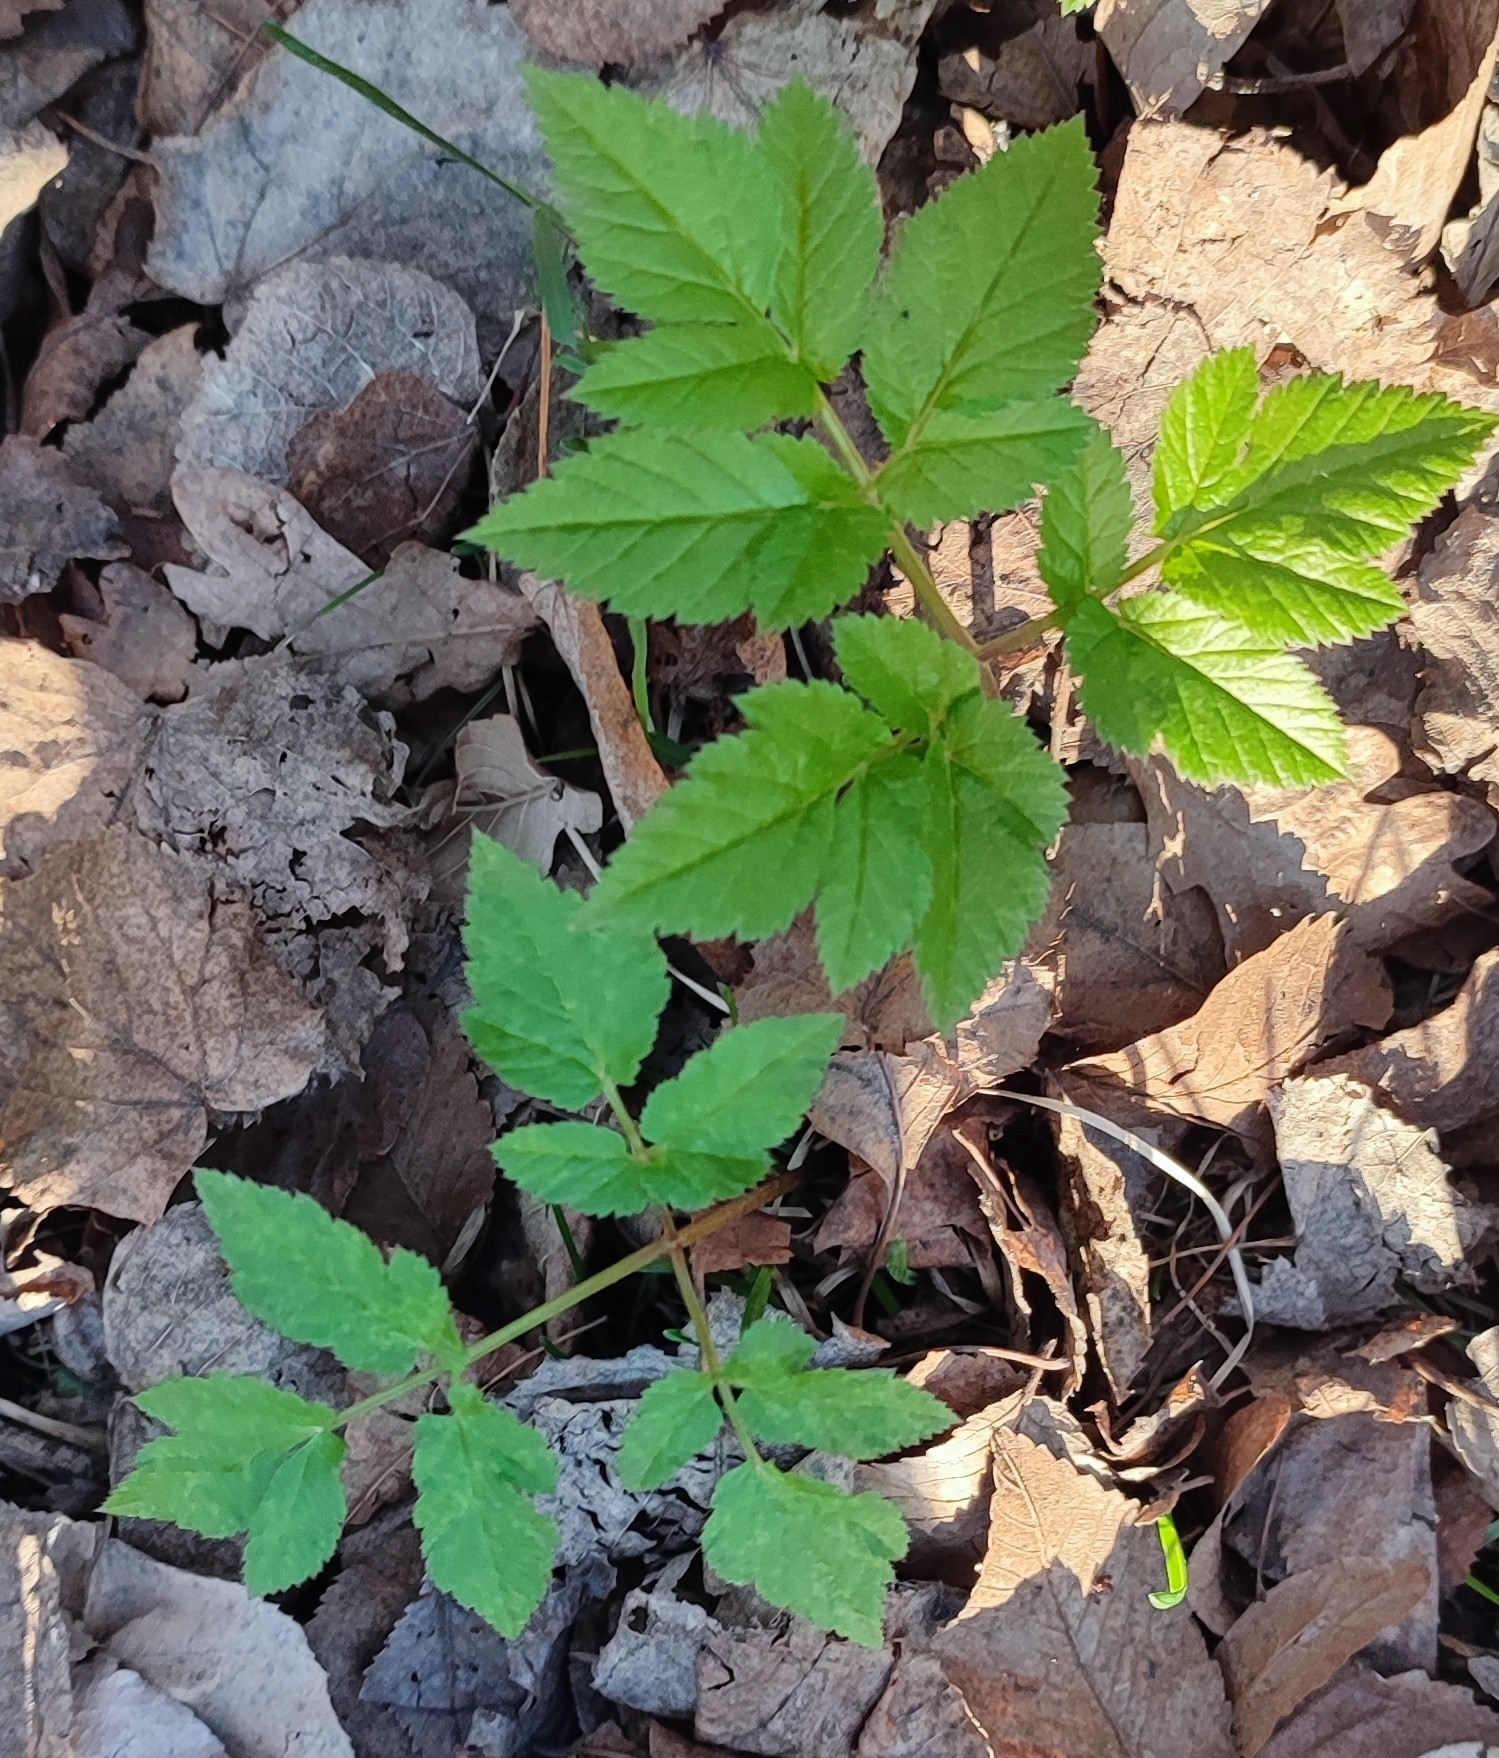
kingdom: Plantae
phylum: Tracheophyta
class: Magnoliopsida
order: Apiales
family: Apiaceae
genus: Aegopodium
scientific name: Aegopodium podagraria
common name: Ground-elder
